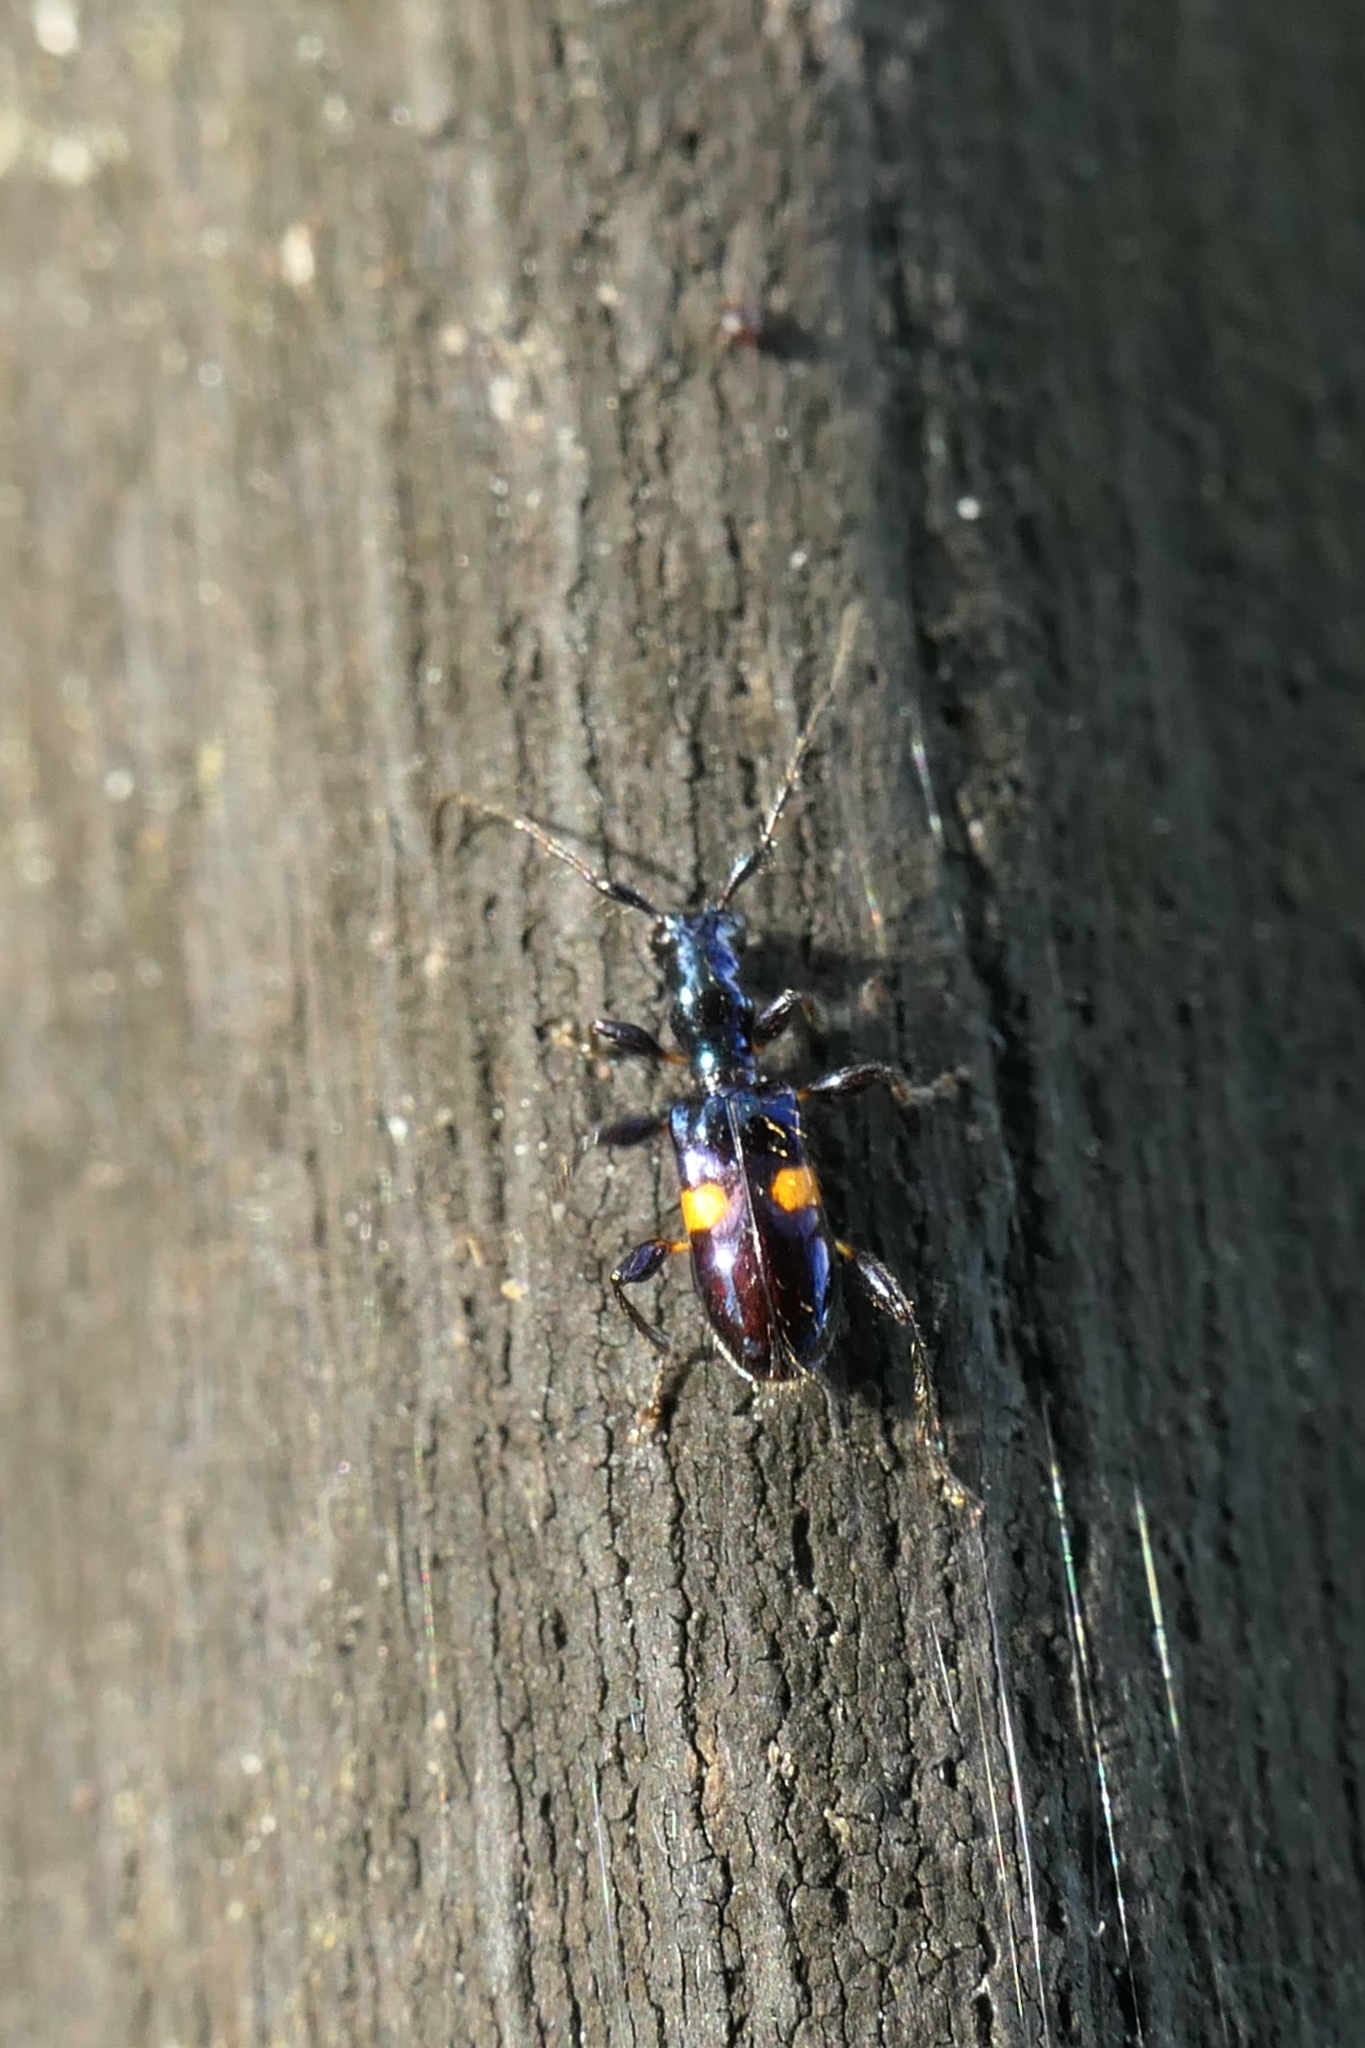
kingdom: Animalia
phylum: Arthropoda
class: Insecta
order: Coleoptera
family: Cerambycidae
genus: Zorion
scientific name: Zorion guttigerum
